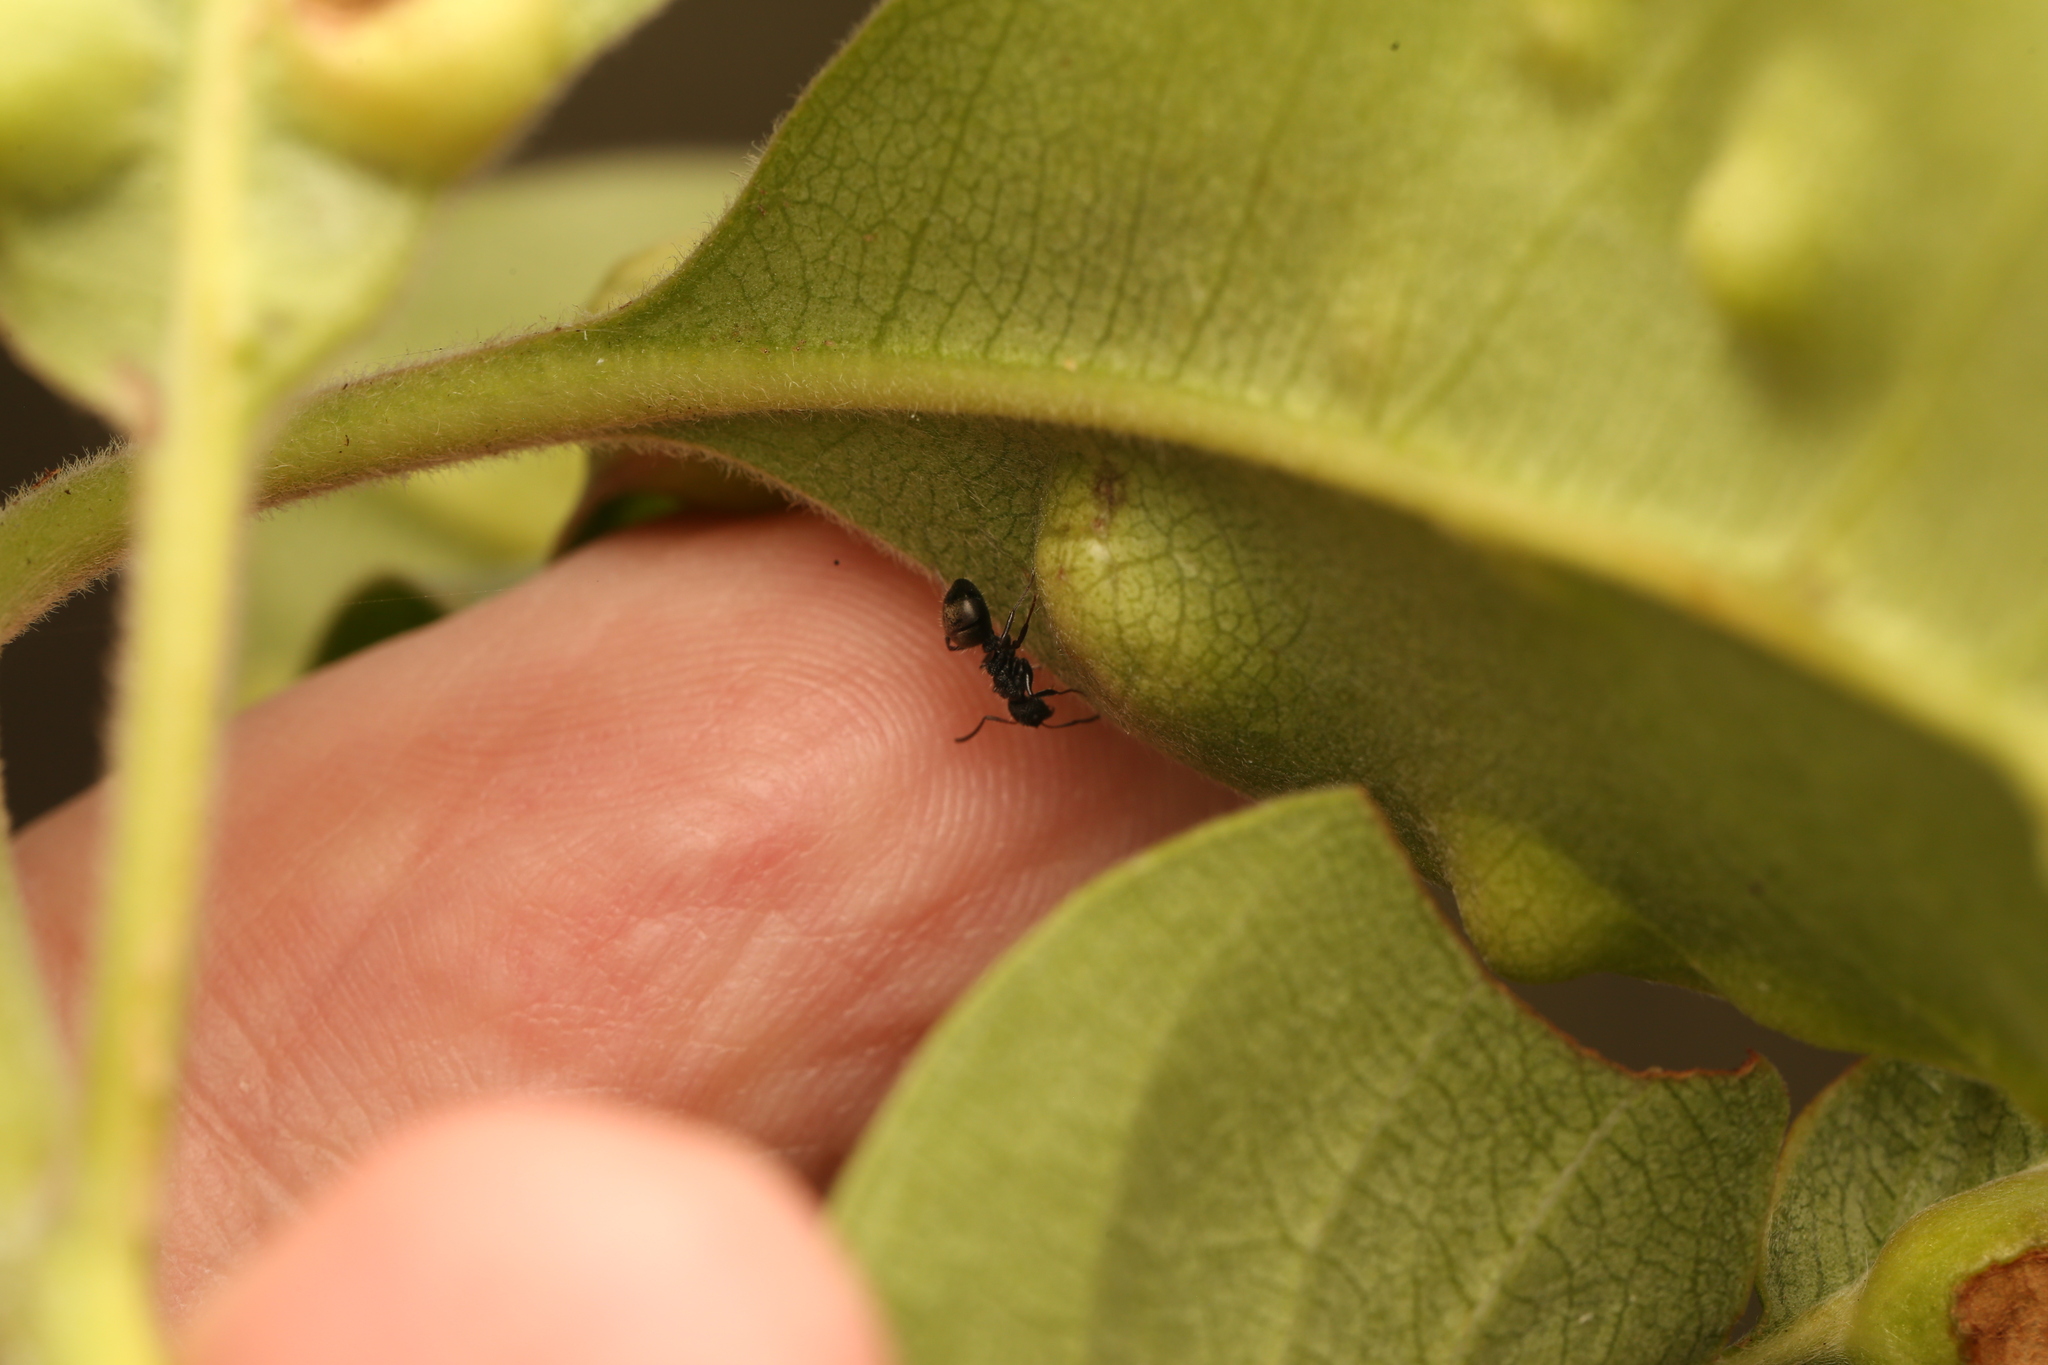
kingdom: Animalia
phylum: Arthropoda
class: Insecta
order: Hymenoptera
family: Formicidae
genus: Dolichoderus
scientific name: Dolichoderus scrobiculatus
